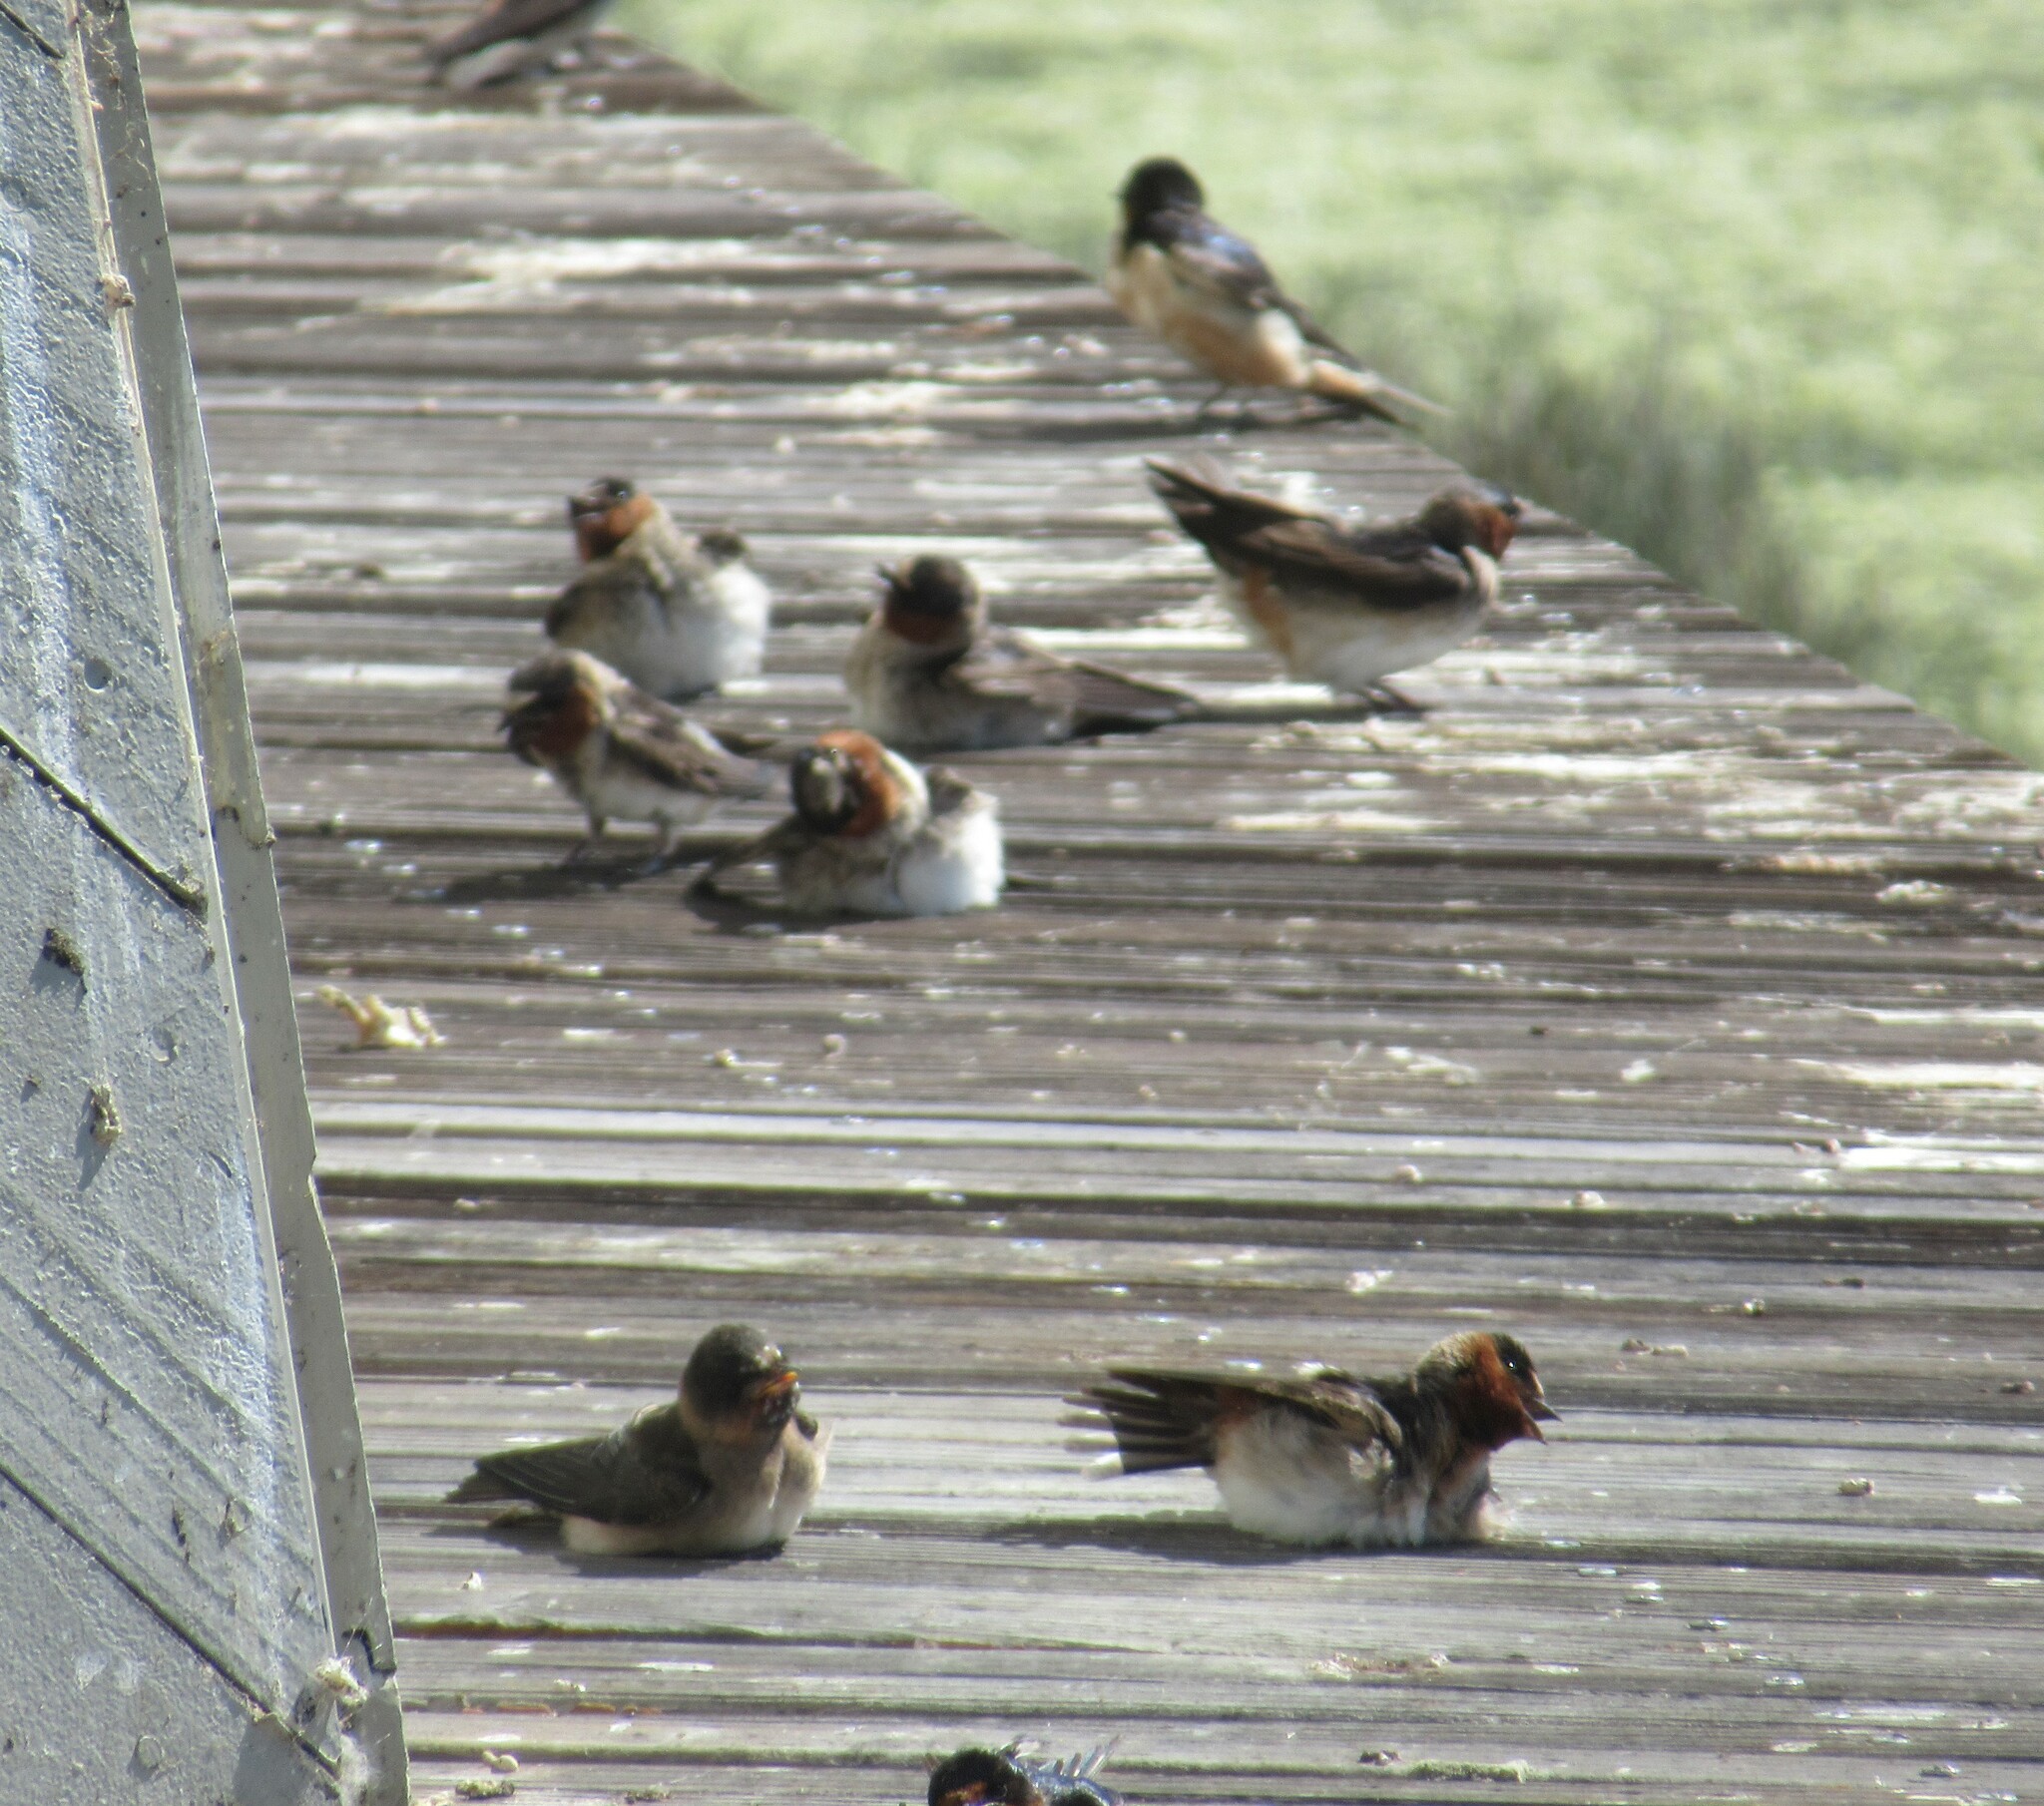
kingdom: Animalia
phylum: Chordata
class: Aves
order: Passeriformes
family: Hirundinidae
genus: Petrochelidon
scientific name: Petrochelidon pyrrhonota
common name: American cliff swallow
